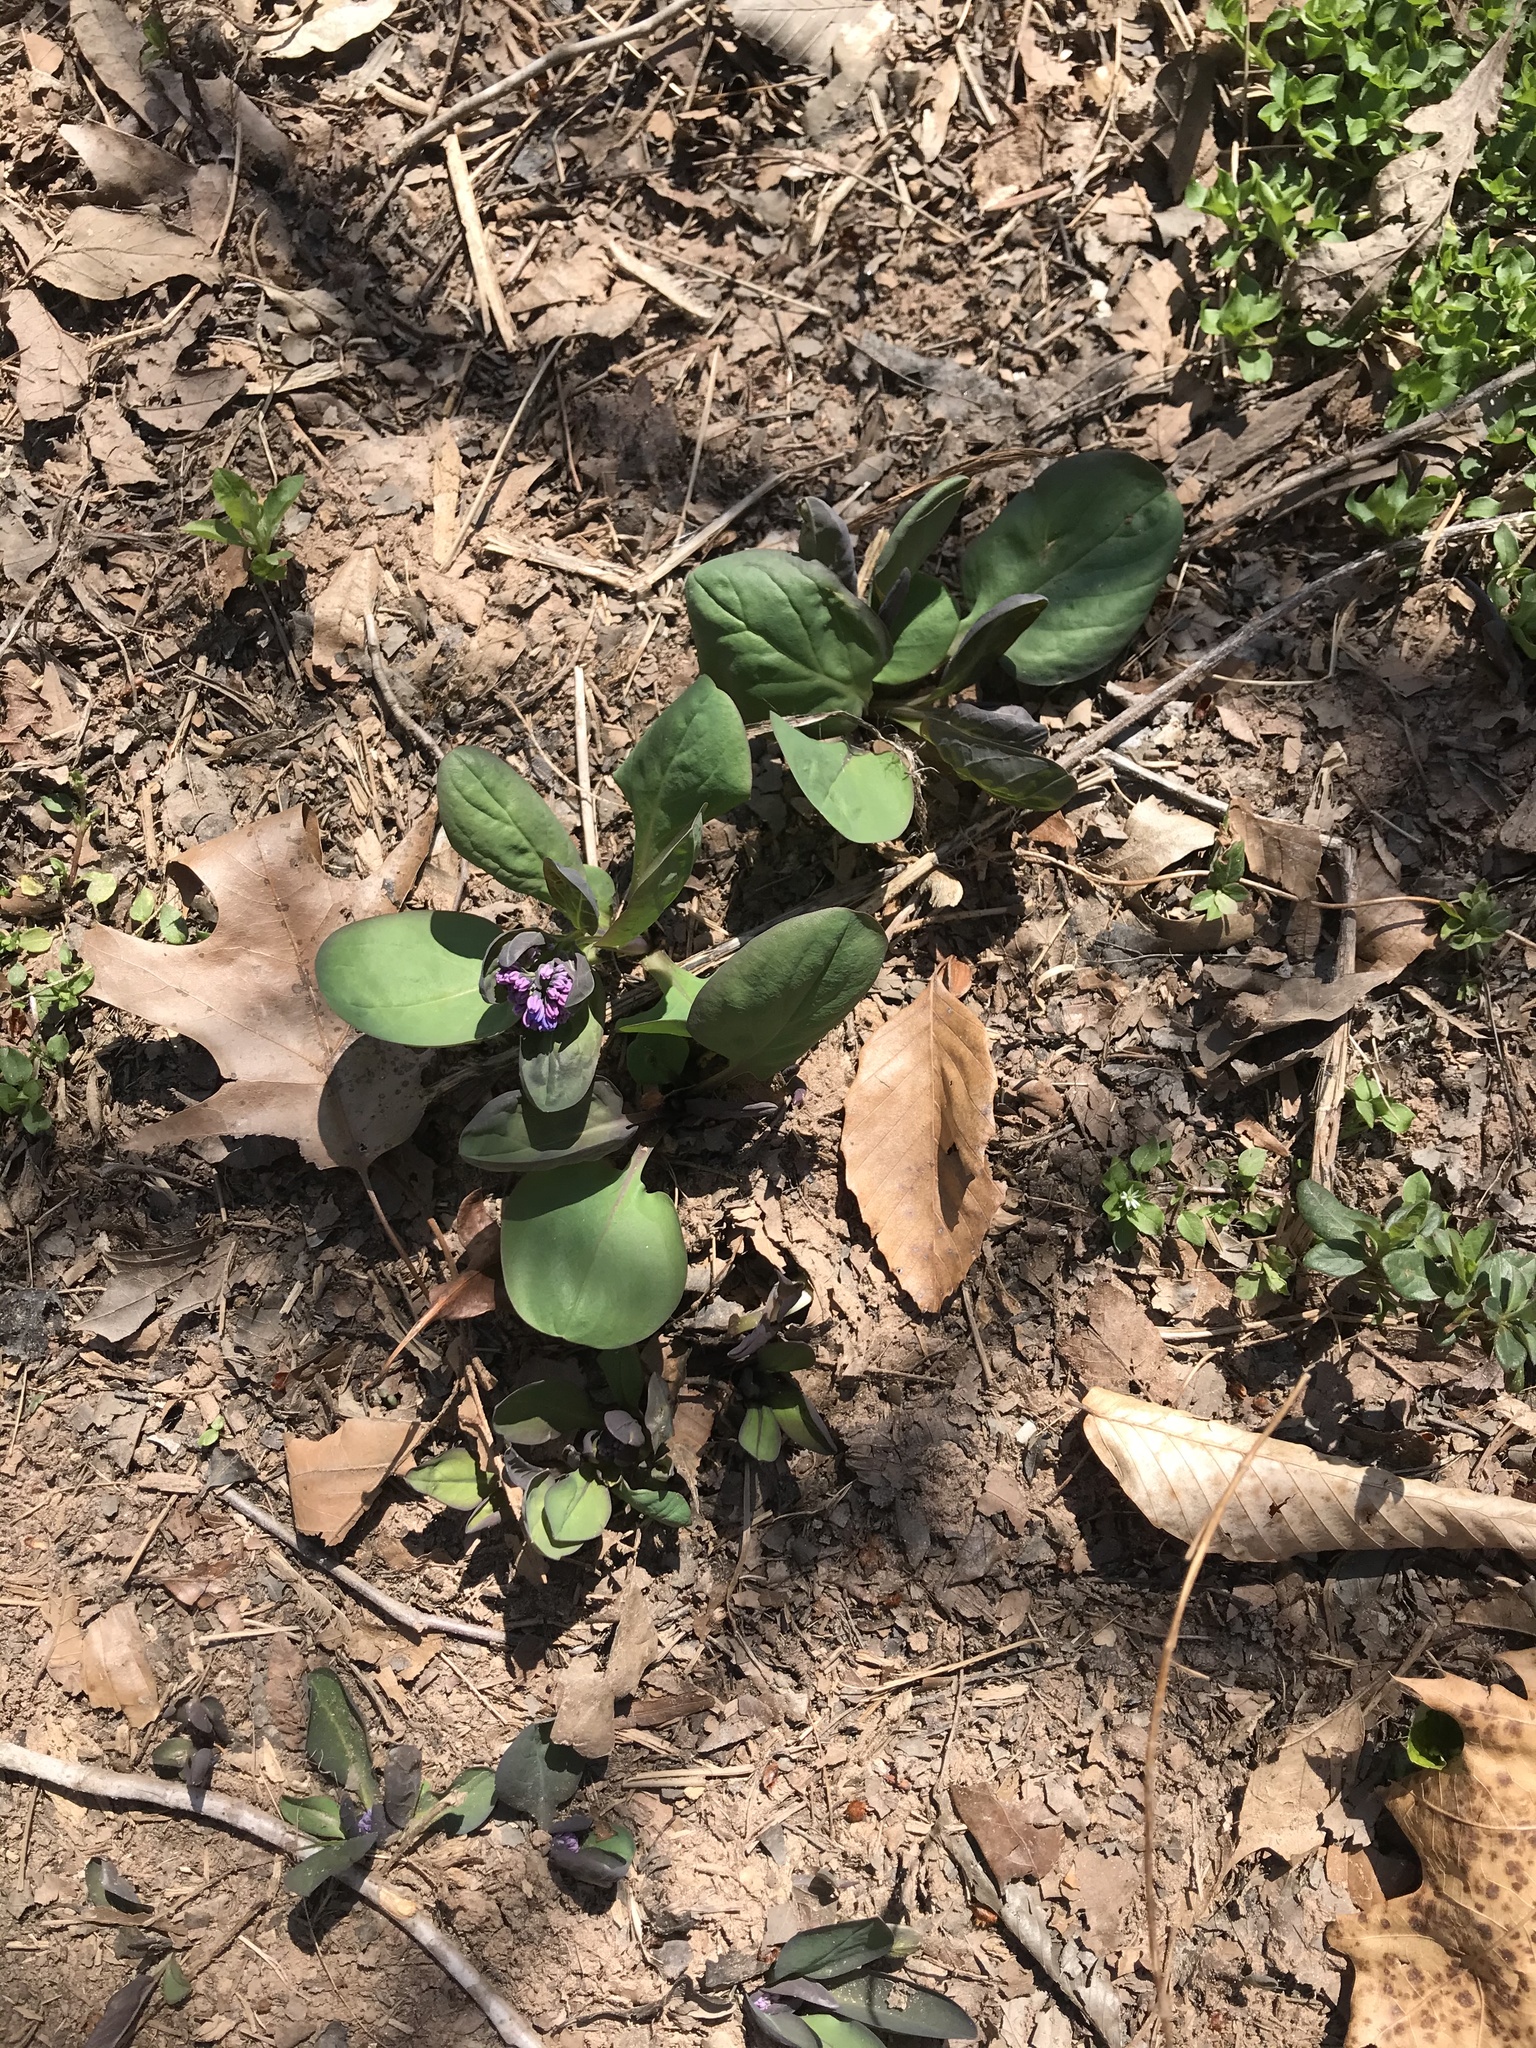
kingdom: Plantae
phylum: Tracheophyta
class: Magnoliopsida
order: Boraginales
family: Boraginaceae
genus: Mertensia
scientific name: Mertensia virginica
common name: Virginia bluebells
